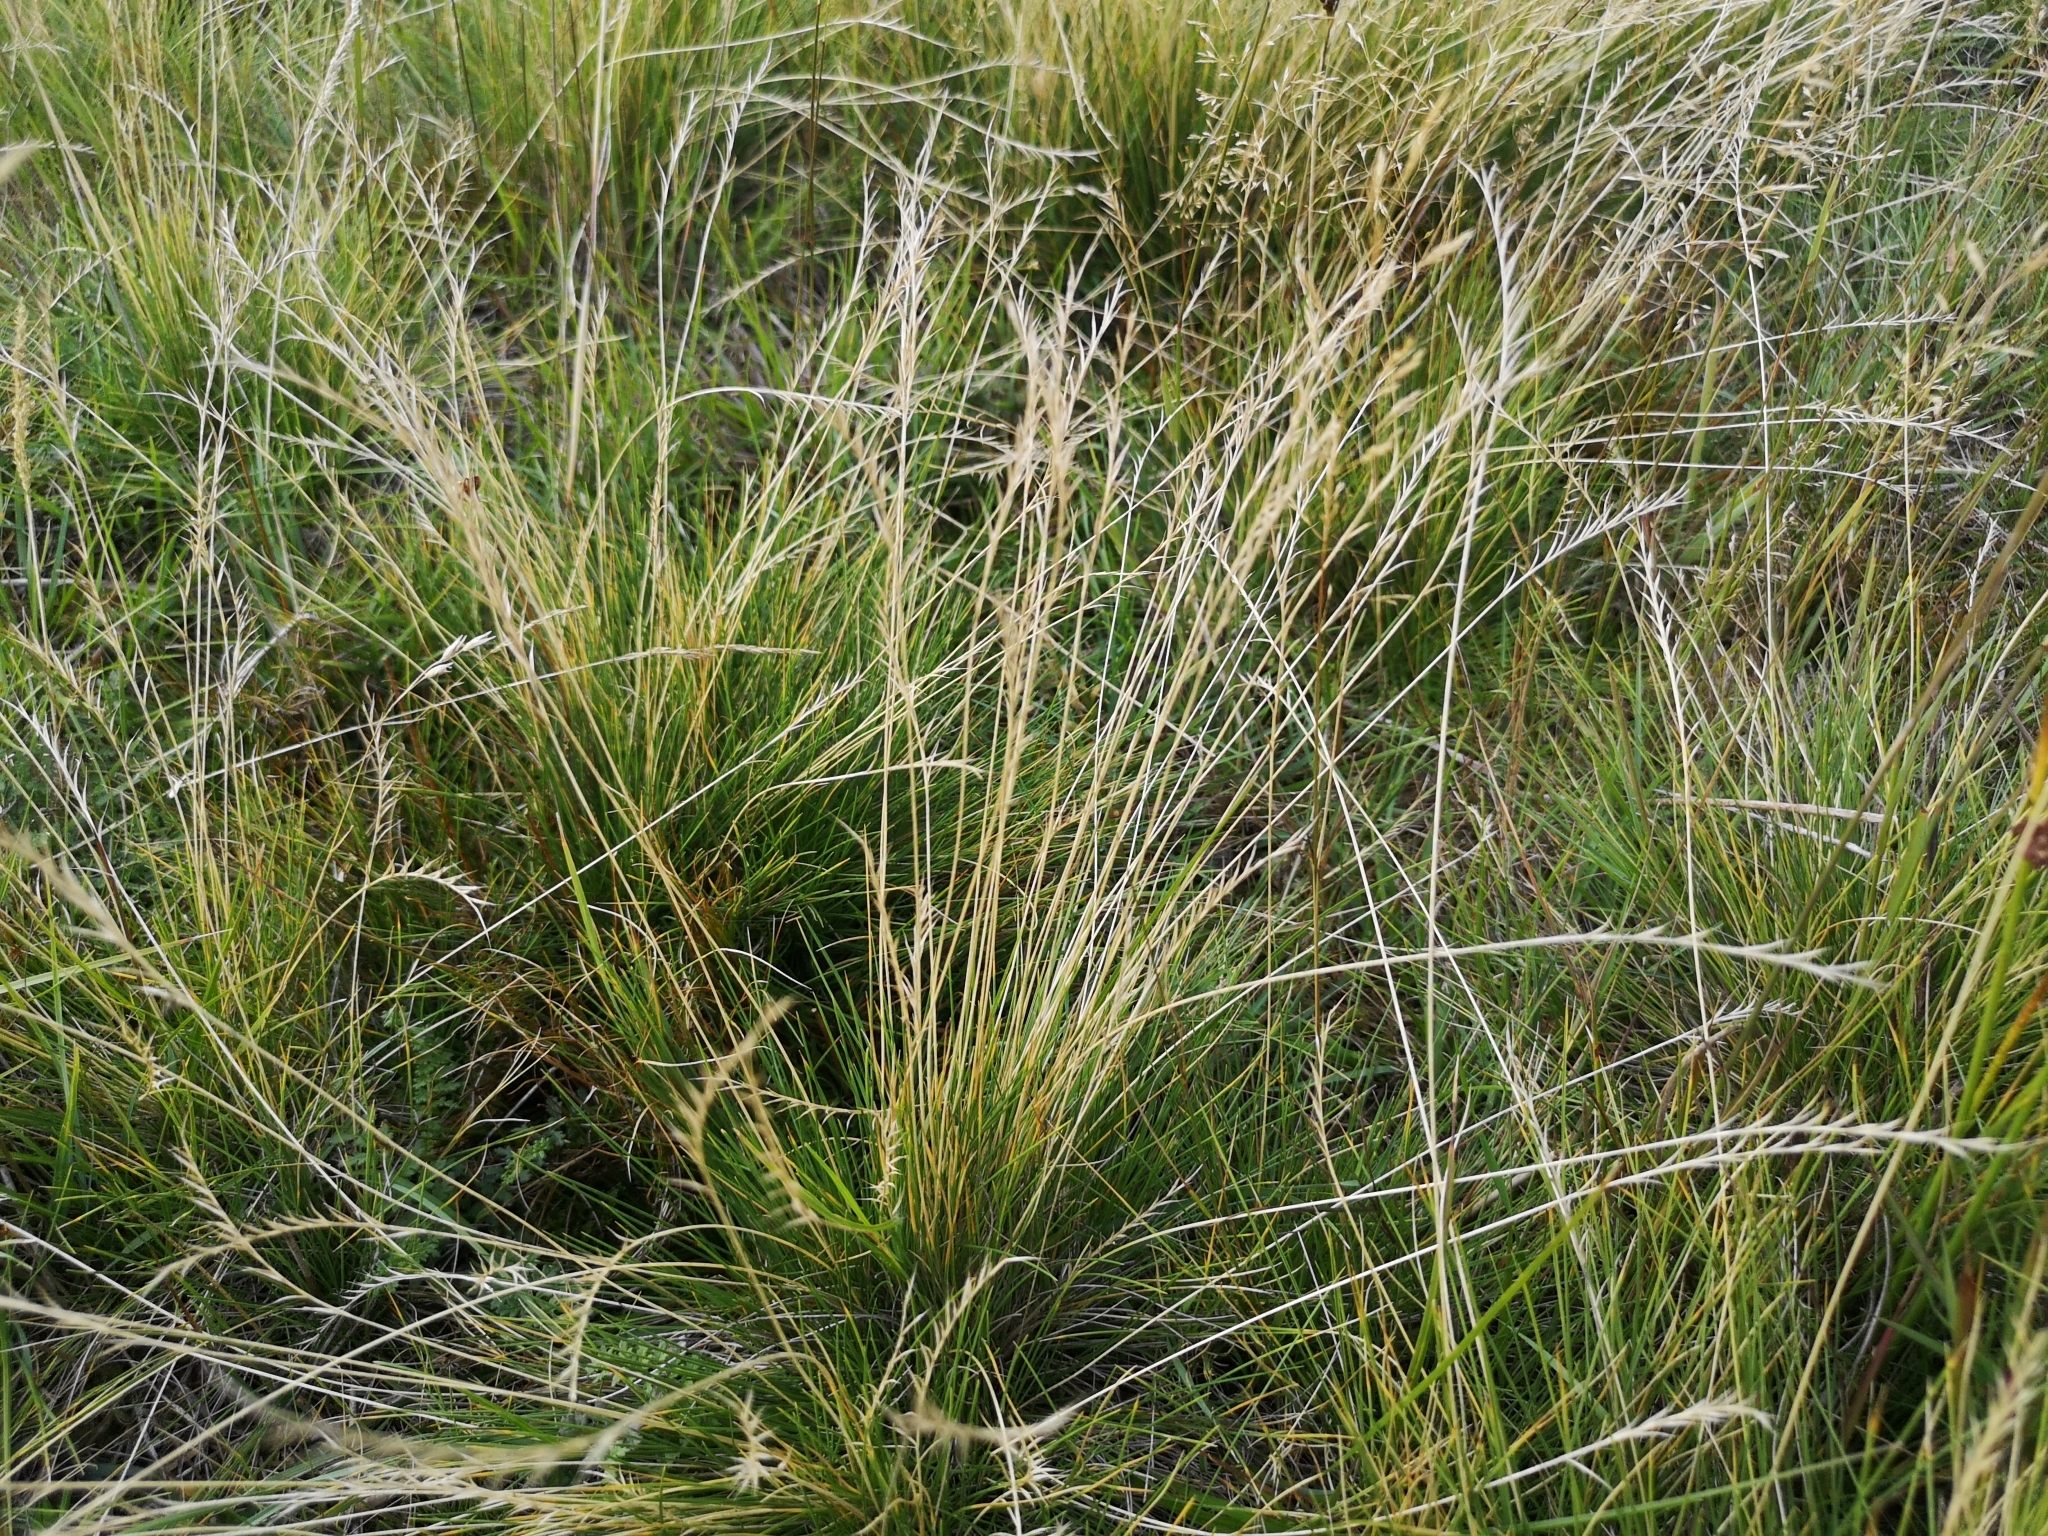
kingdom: Plantae
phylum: Tracheophyta
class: Liliopsida
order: Poales
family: Poaceae
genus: Nardus
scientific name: Nardus stricta
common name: Mat-grass
